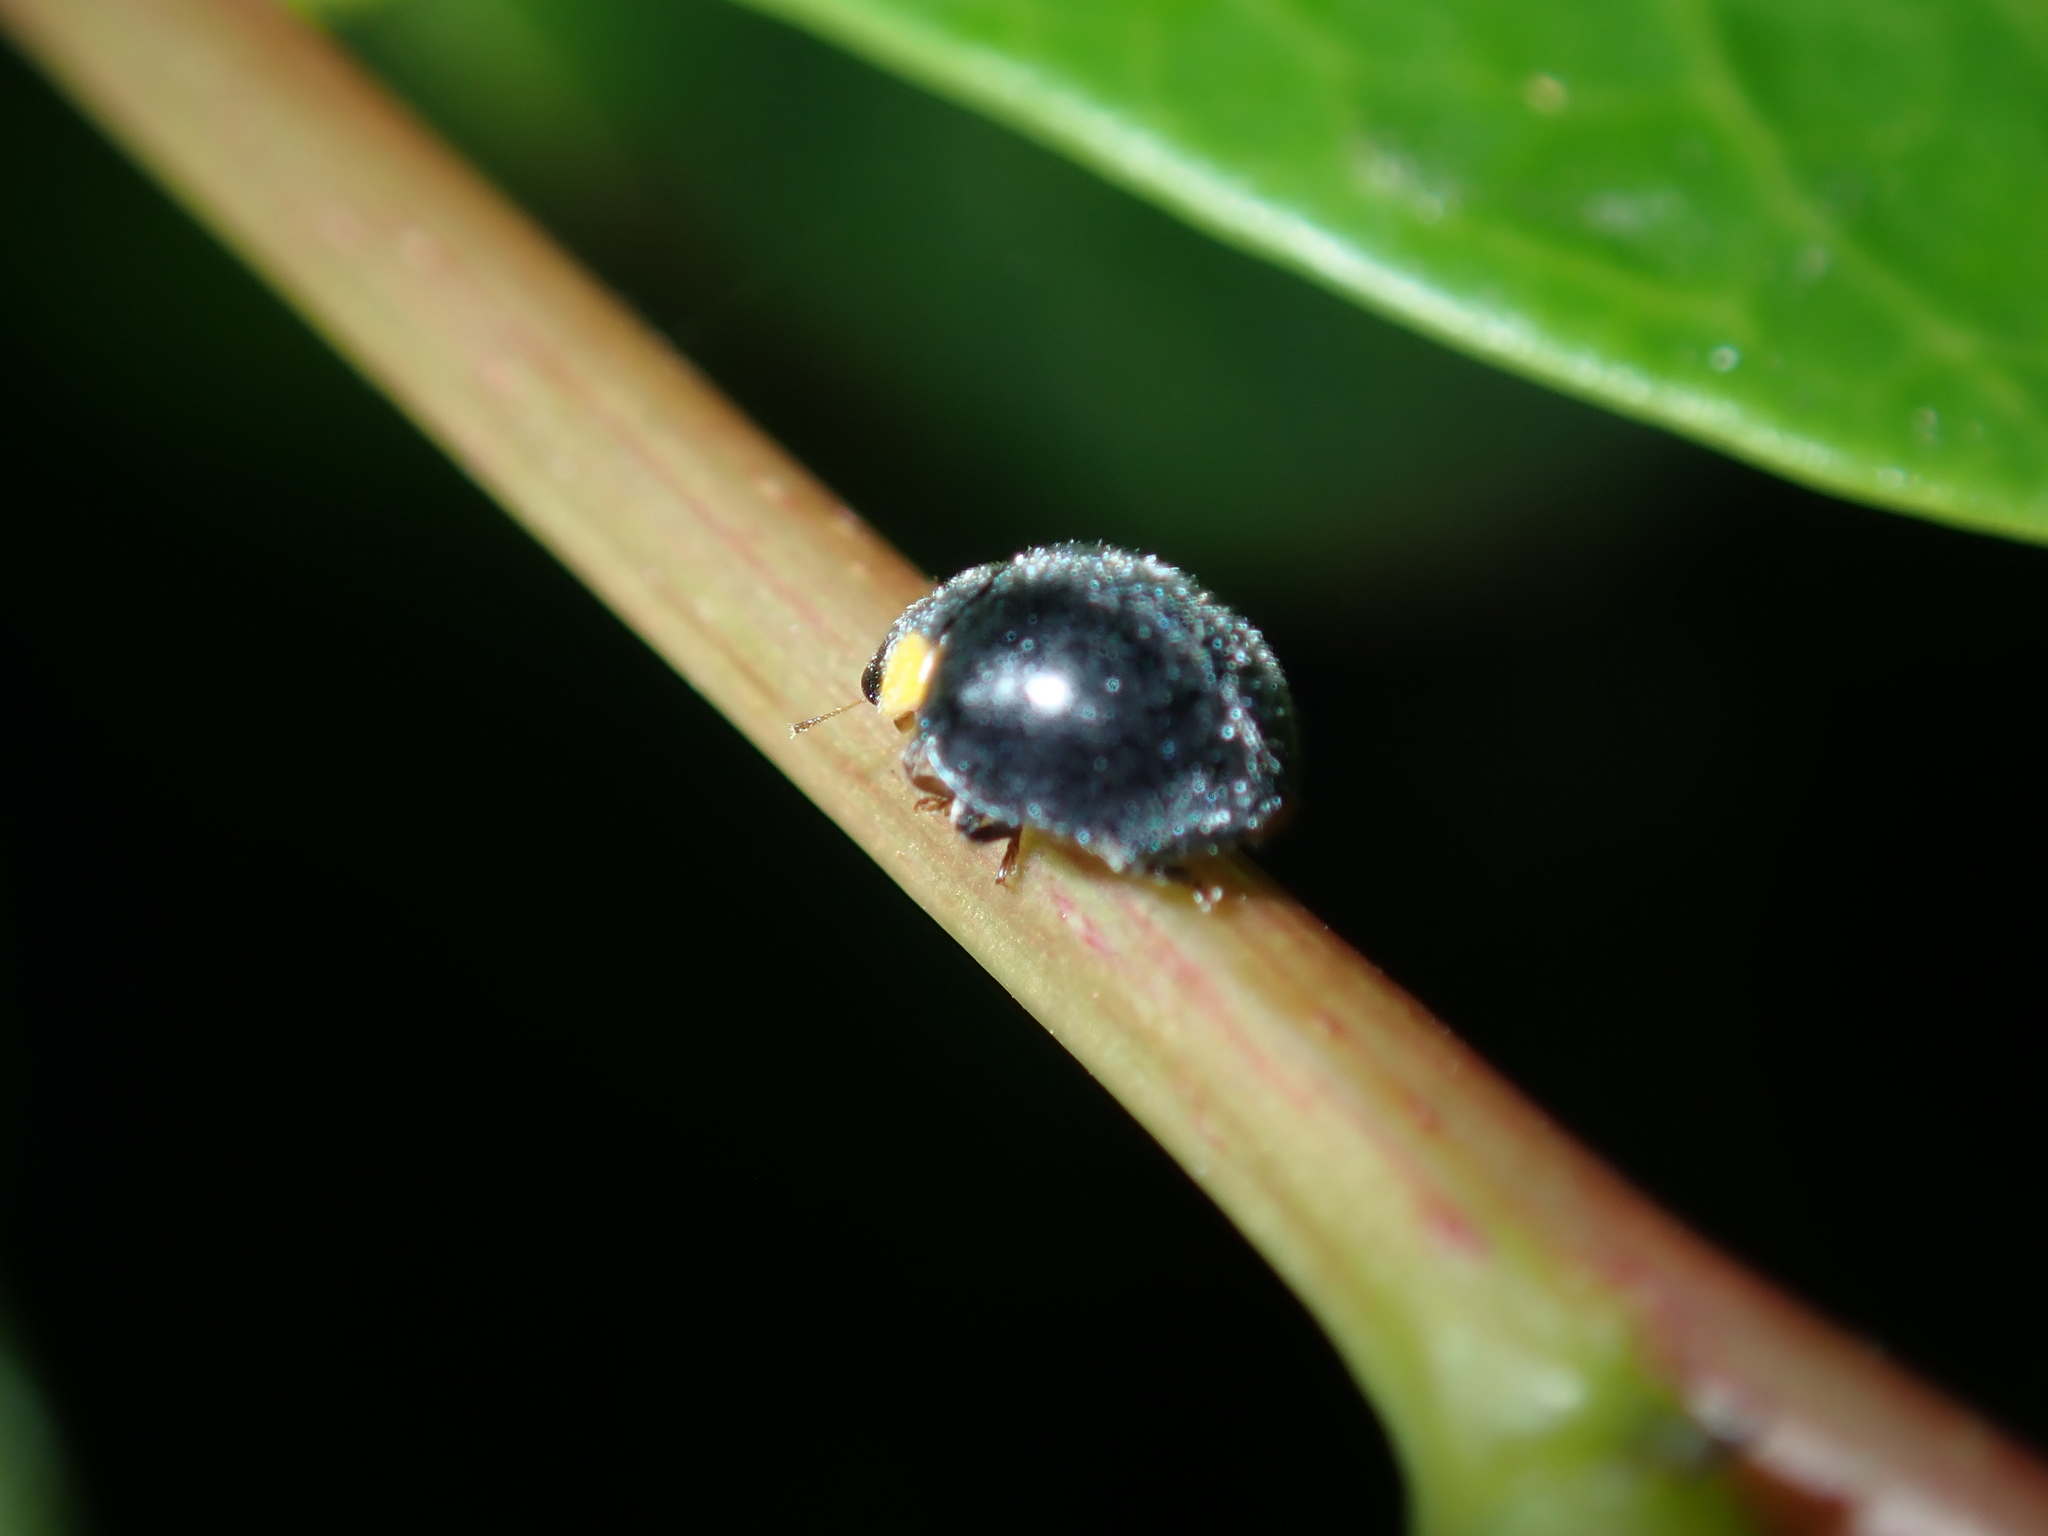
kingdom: Animalia
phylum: Arthropoda
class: Insecta
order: Coleoptera
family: Coccinellidae
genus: Scymnodes
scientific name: Scymnodes lividigaster
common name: Yellowshouldered lady beetle
